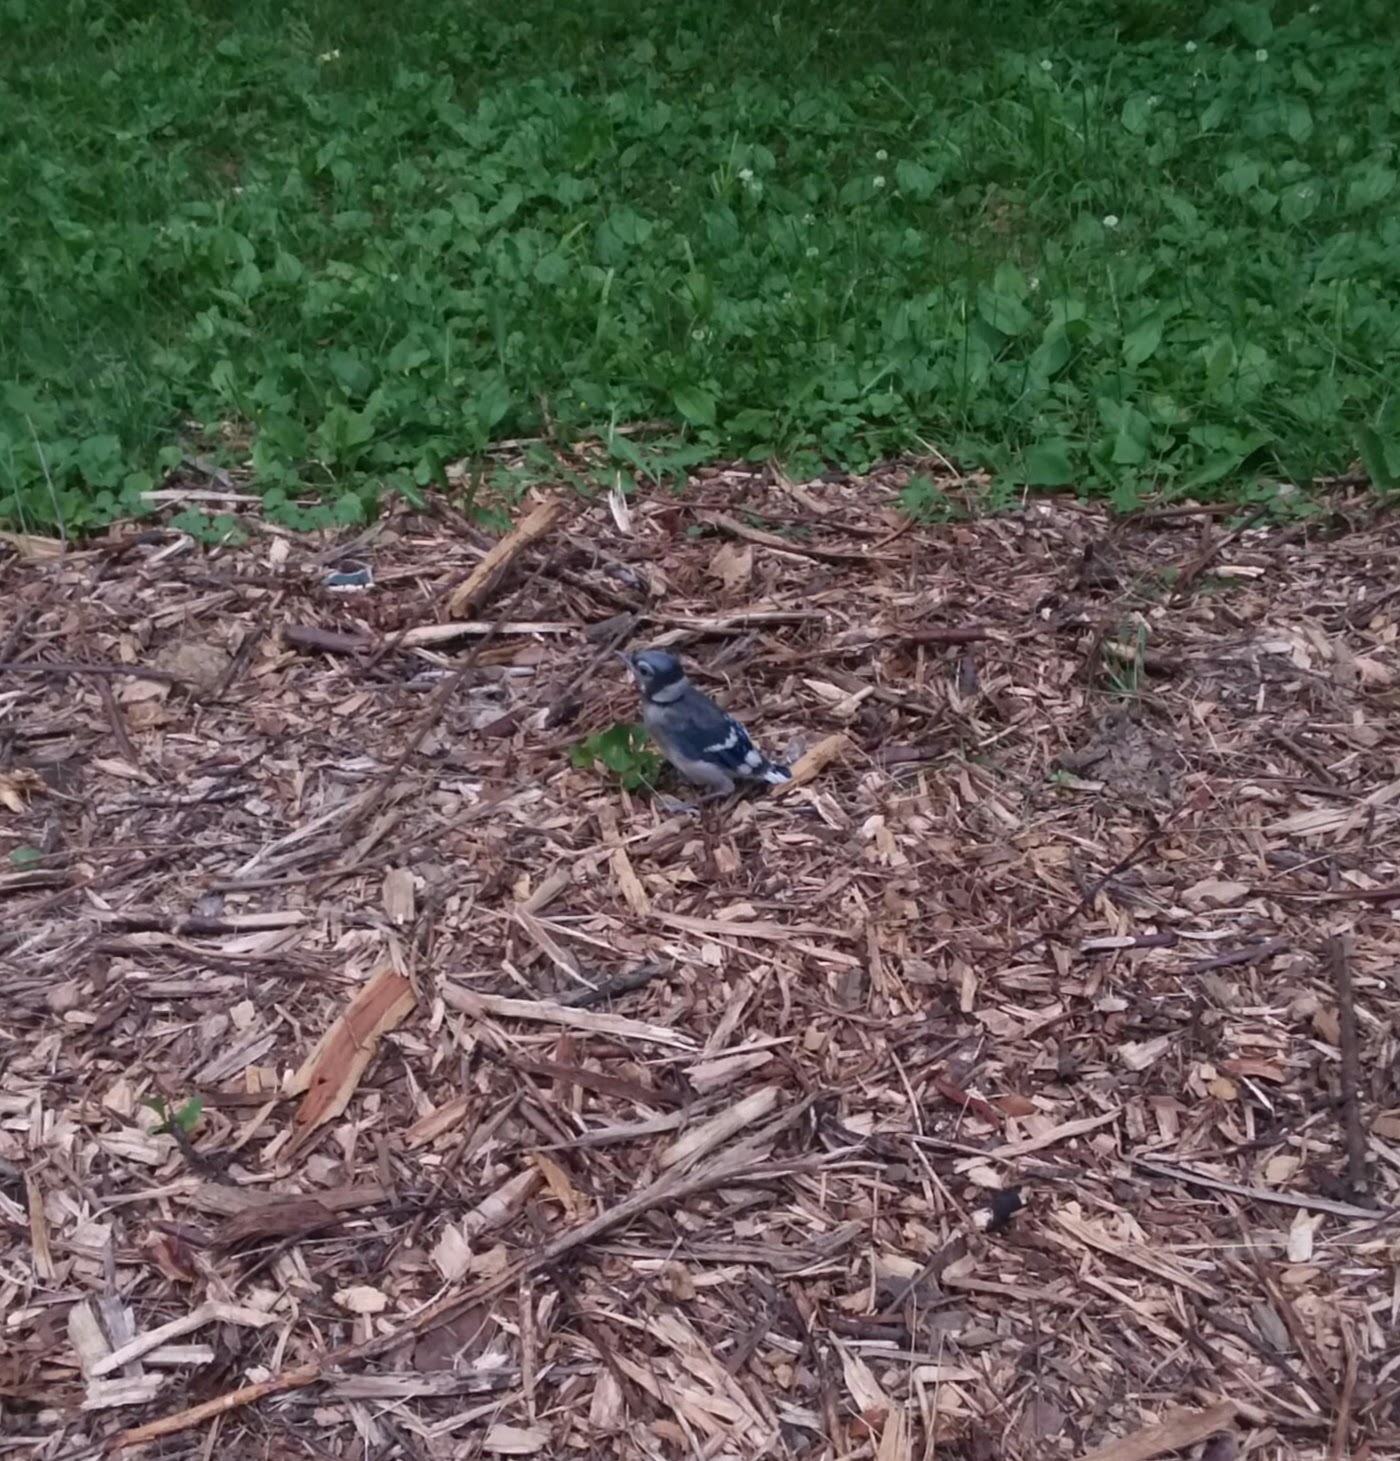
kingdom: Animalia
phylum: Chordata
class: Aves
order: Passeriformes
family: Corvidae
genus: Cyanocitta
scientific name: Cyanocitta cristata
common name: Blue jay
